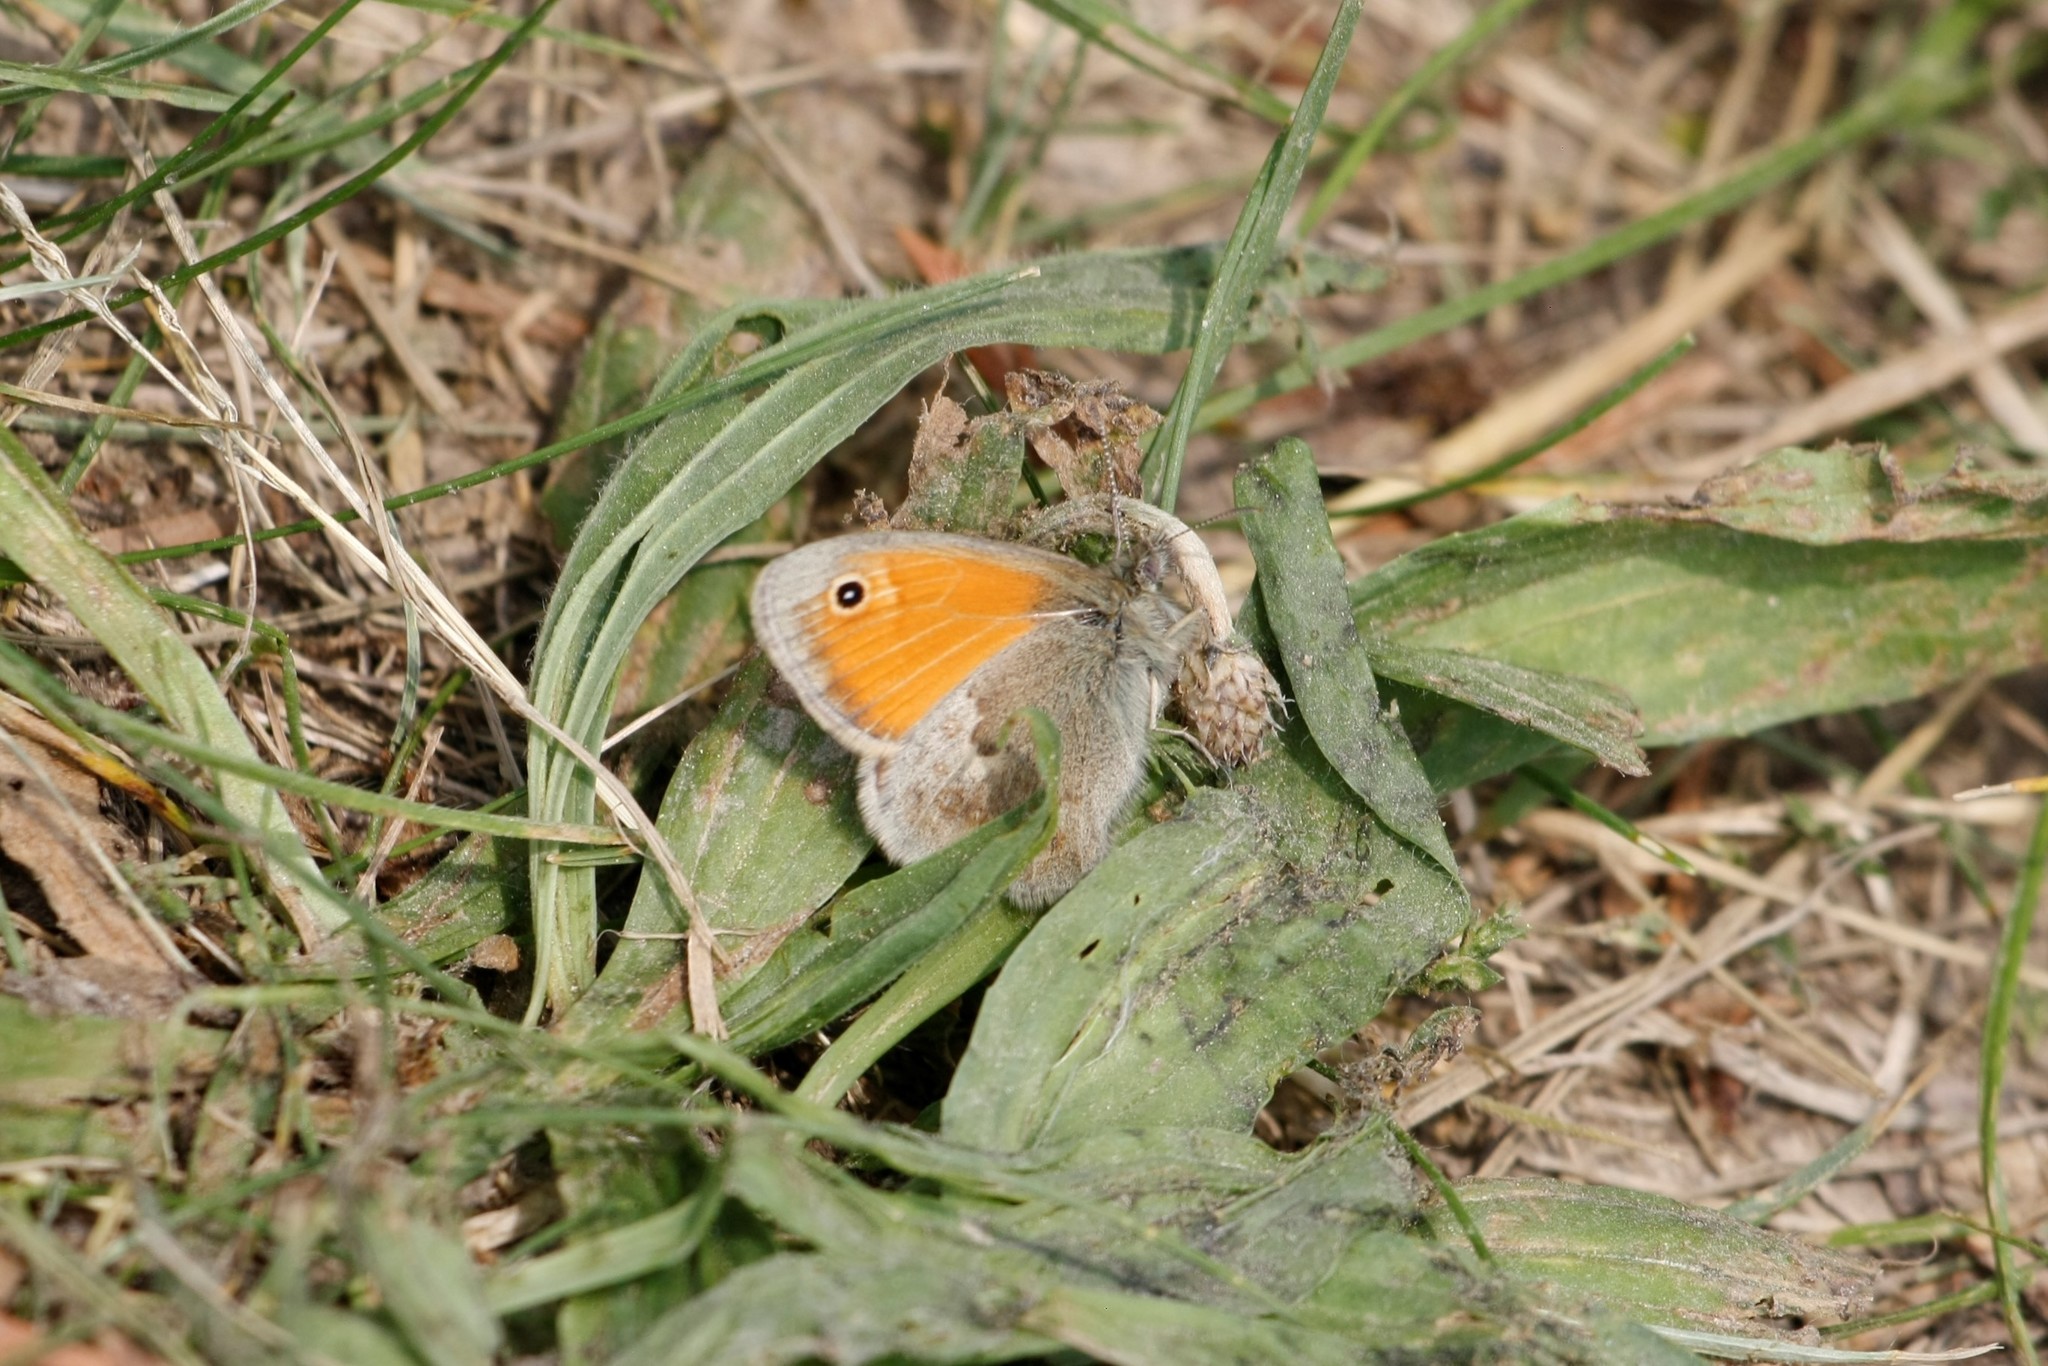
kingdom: Animalia
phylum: Arthropoda
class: Insecta
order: Lepidoptera
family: Nymphalidae
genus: Coenonympha
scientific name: Coenonympha pamphilus
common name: Small heath
